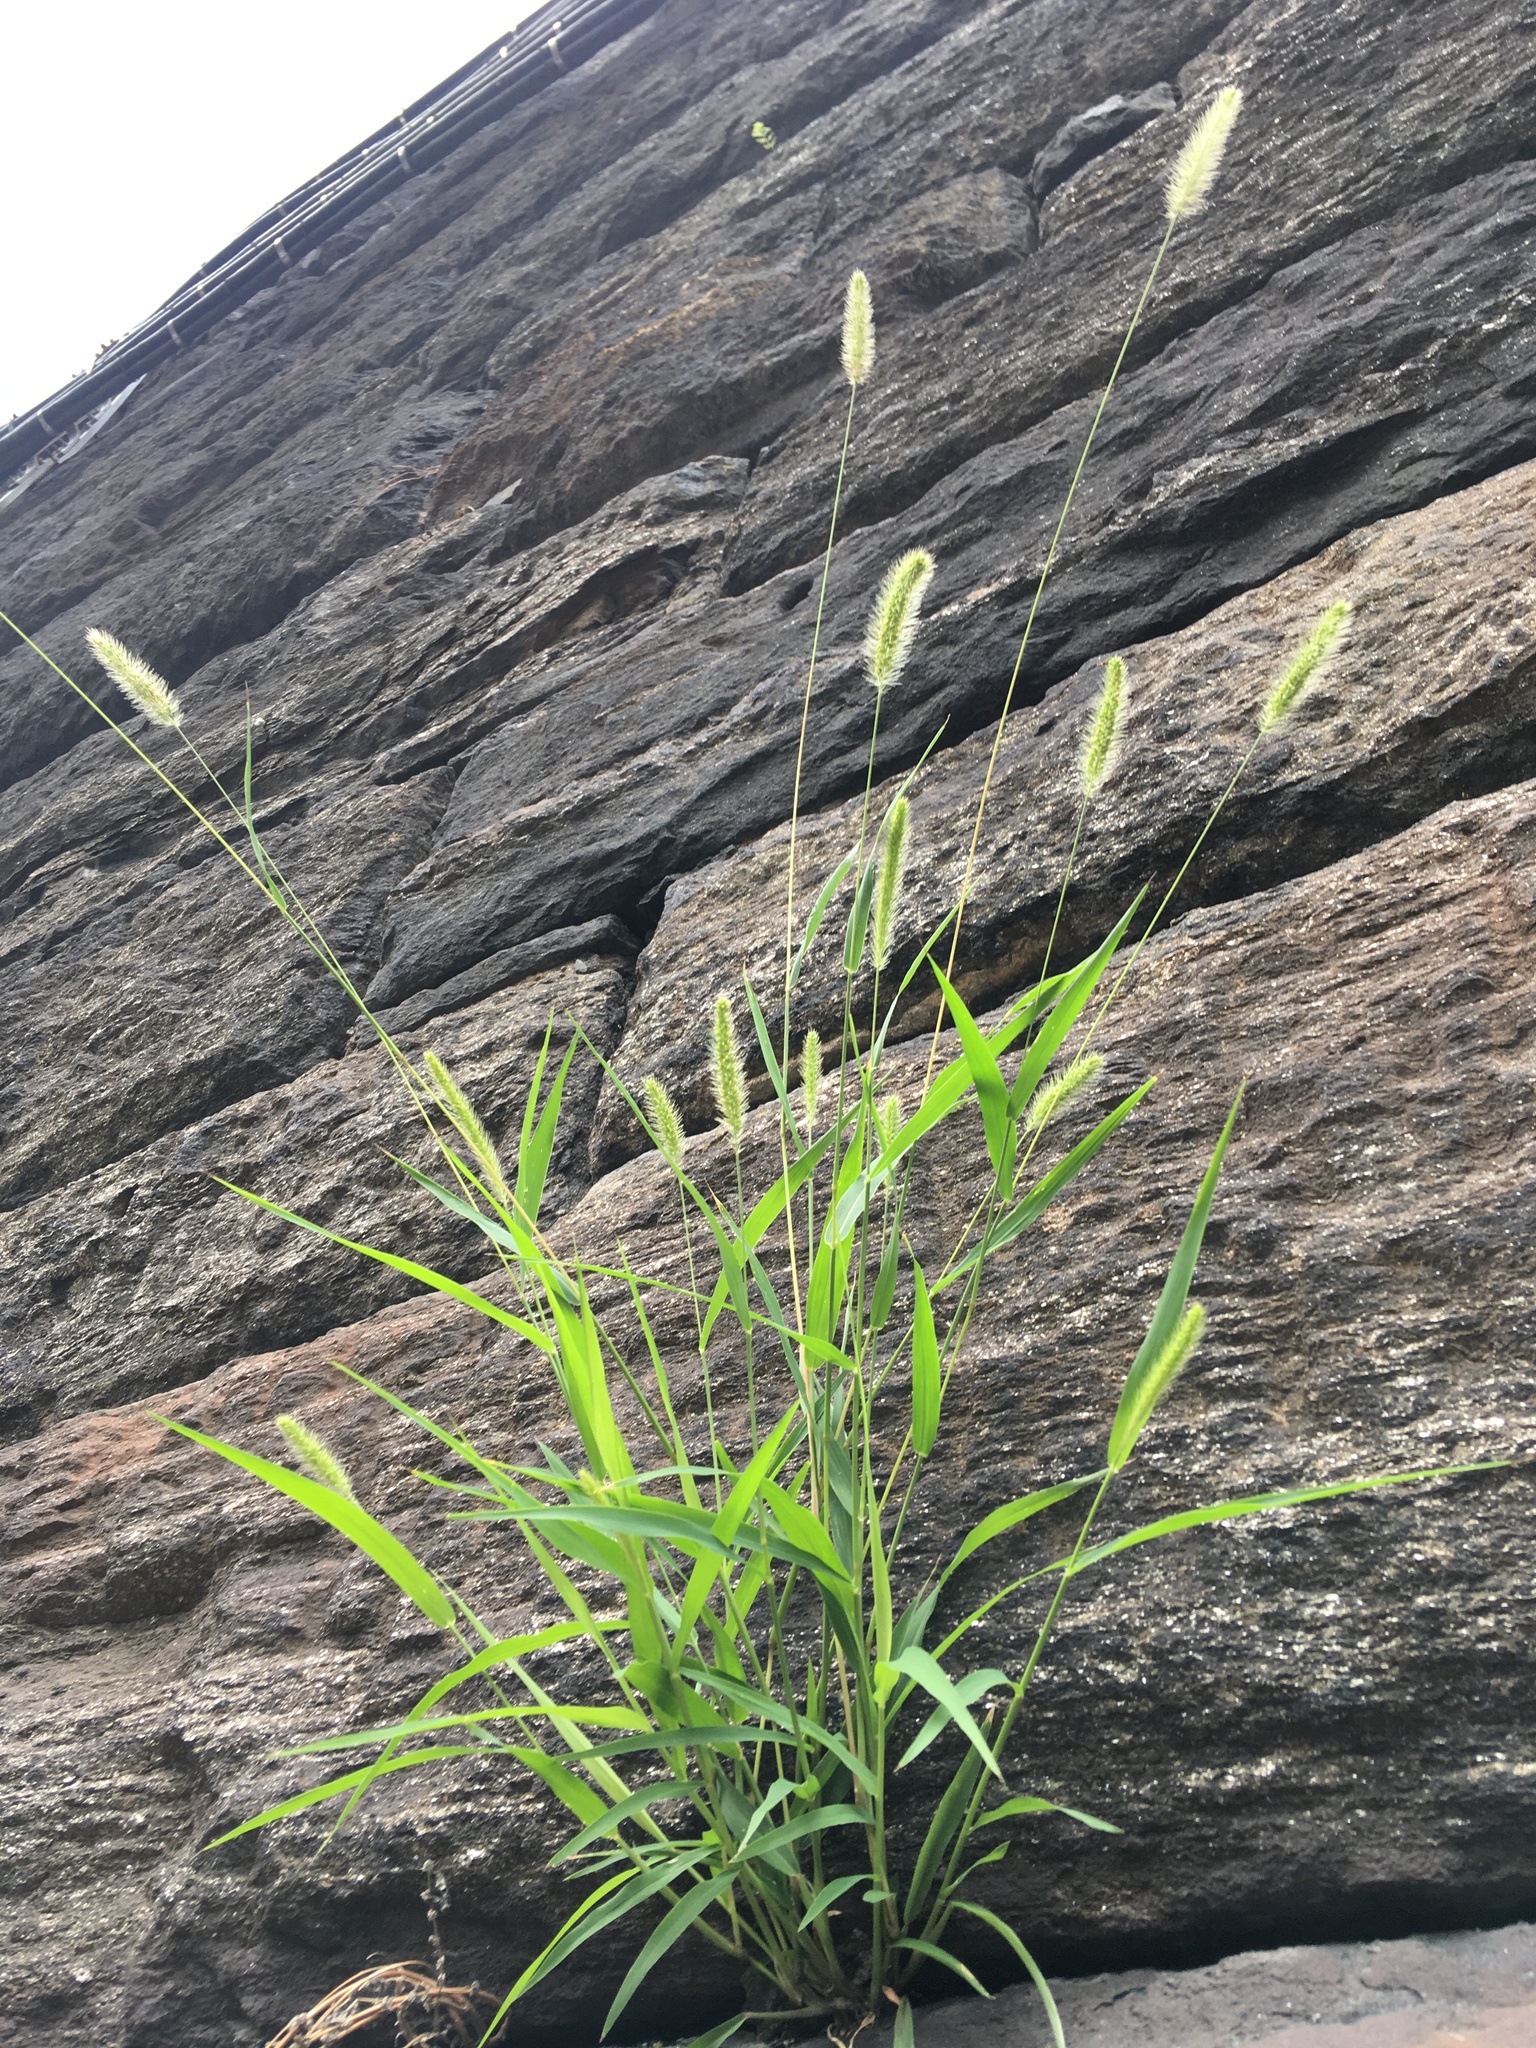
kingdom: Plantae
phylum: Tracheophyta
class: Liliopsida
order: Poales
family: Poaceae
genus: Setaria
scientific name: Setaria viridis
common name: Green bristlegrass
